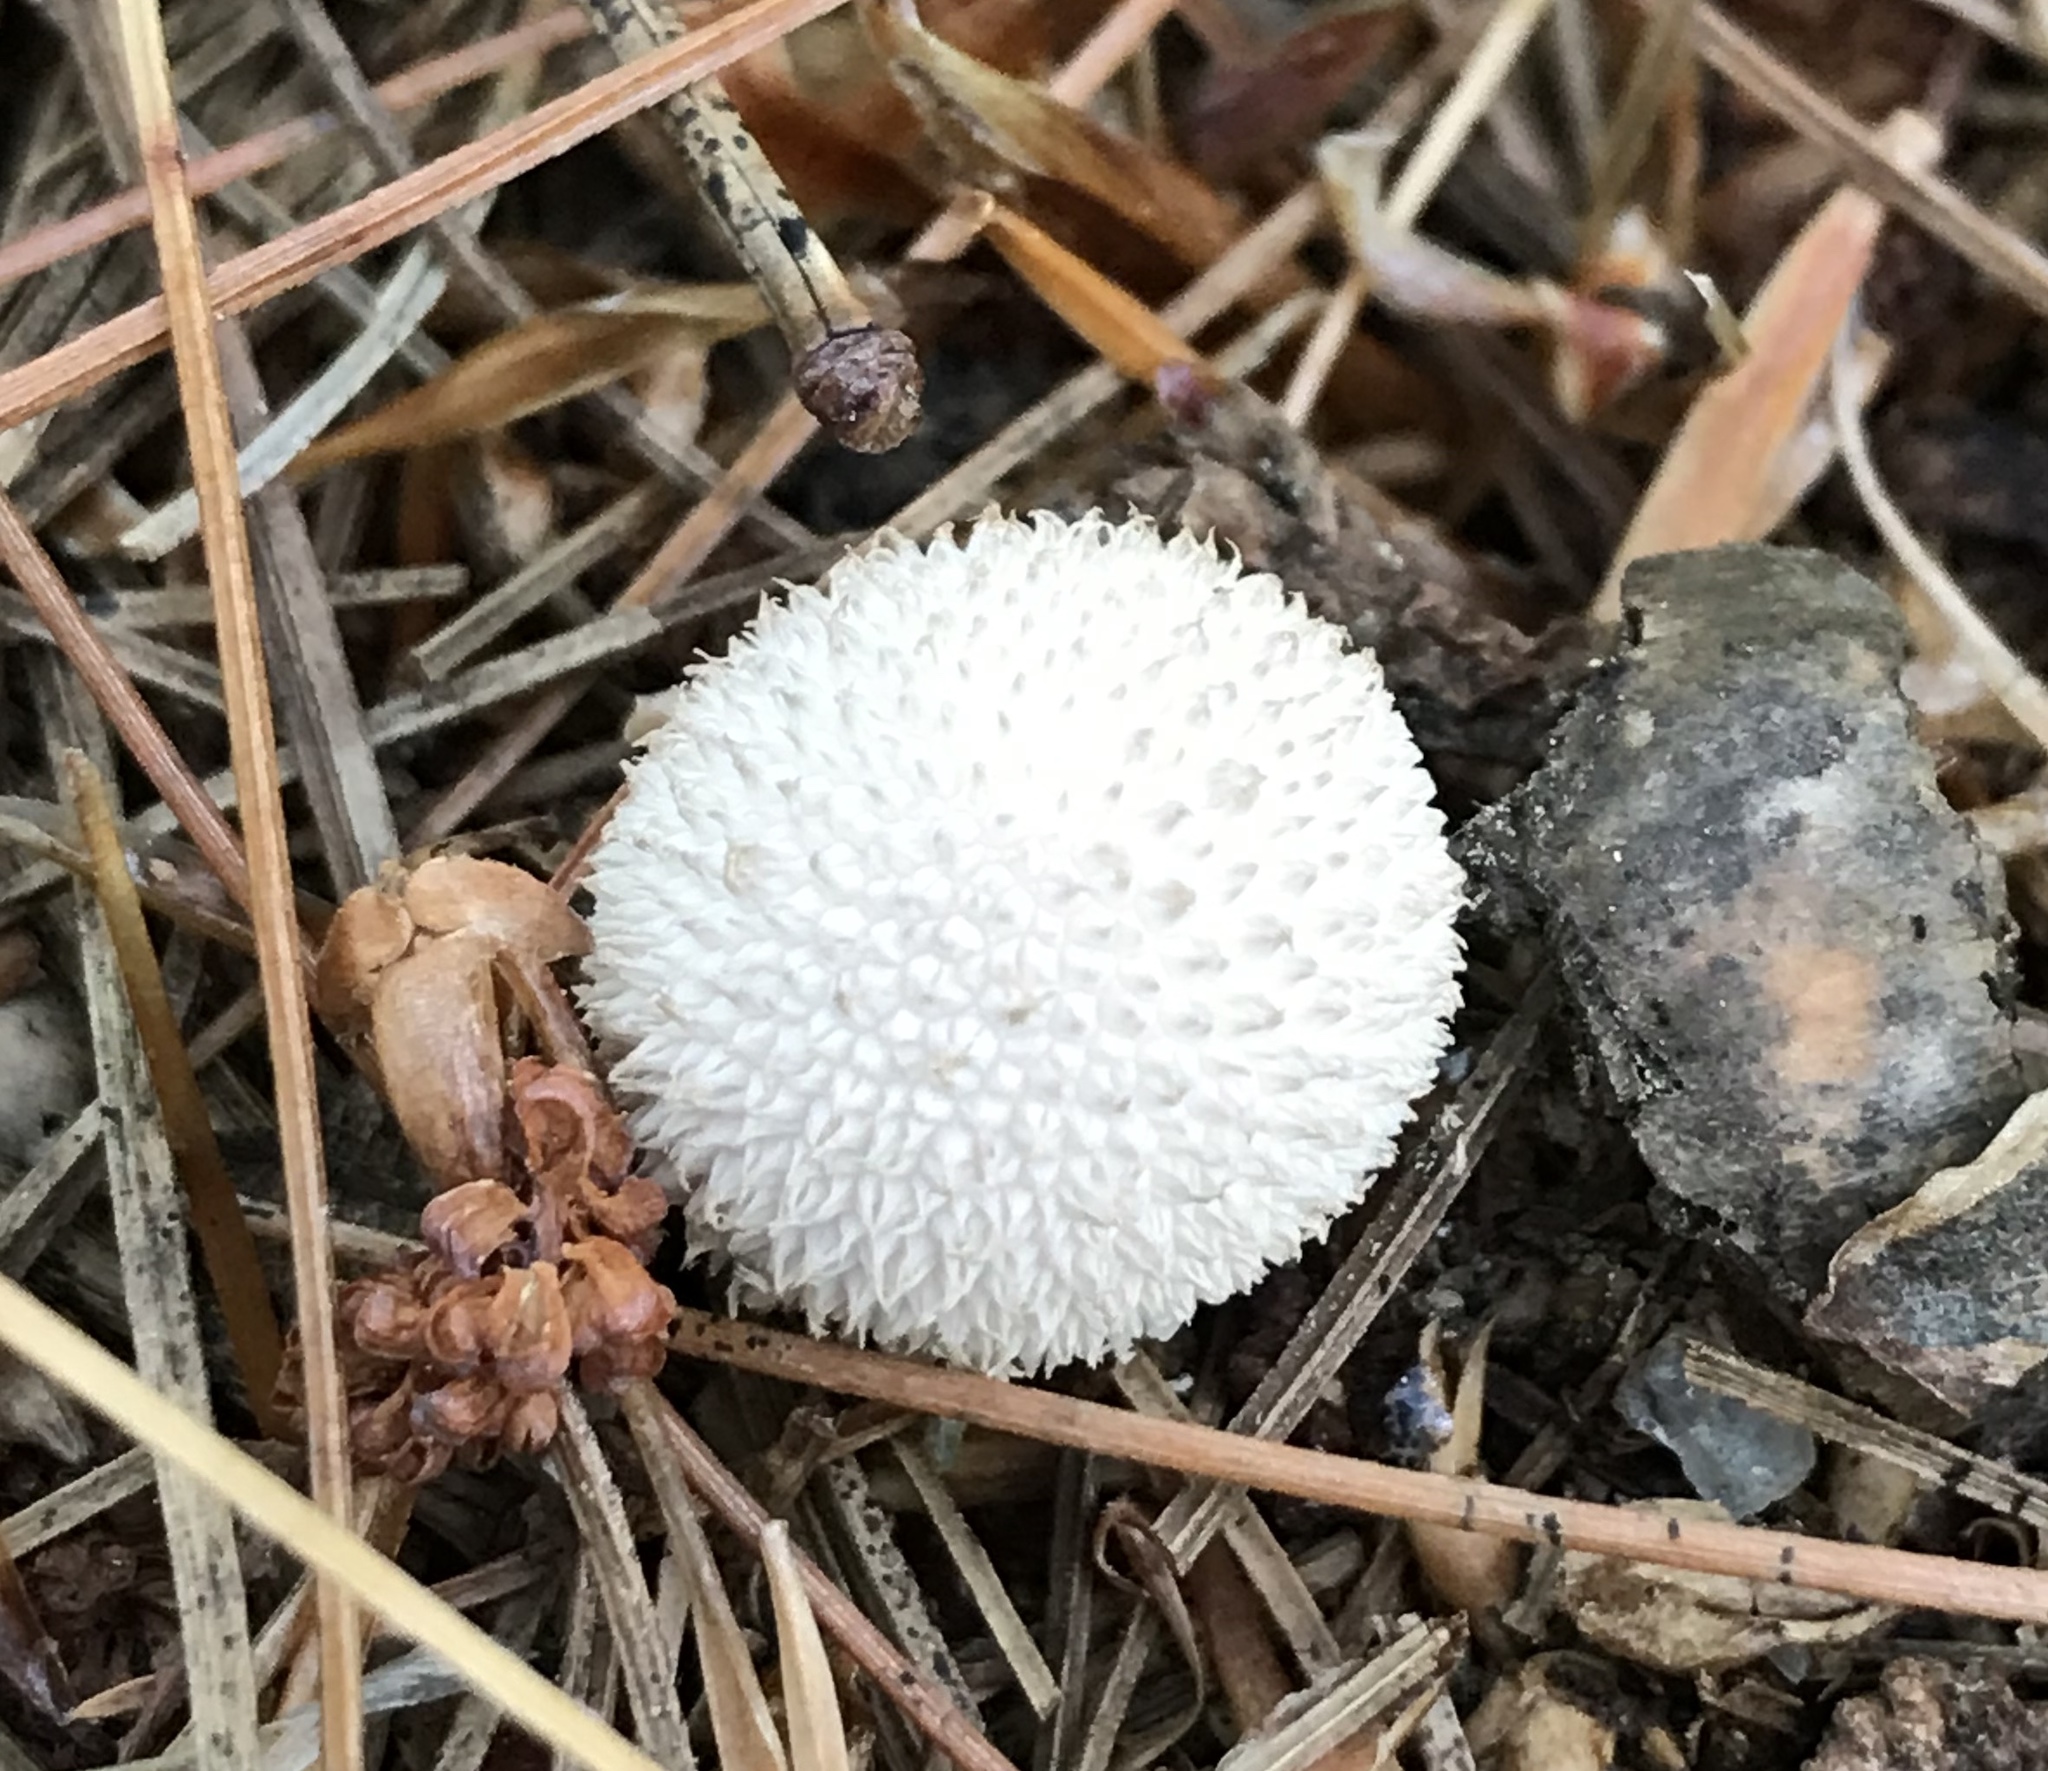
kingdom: Fungi
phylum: Basidiomycota
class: Agaricomycetes
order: Agaricales
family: Agaricaceae
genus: Lycoperdon
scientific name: Lycoperdon marginatum
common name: Peeling puffball
